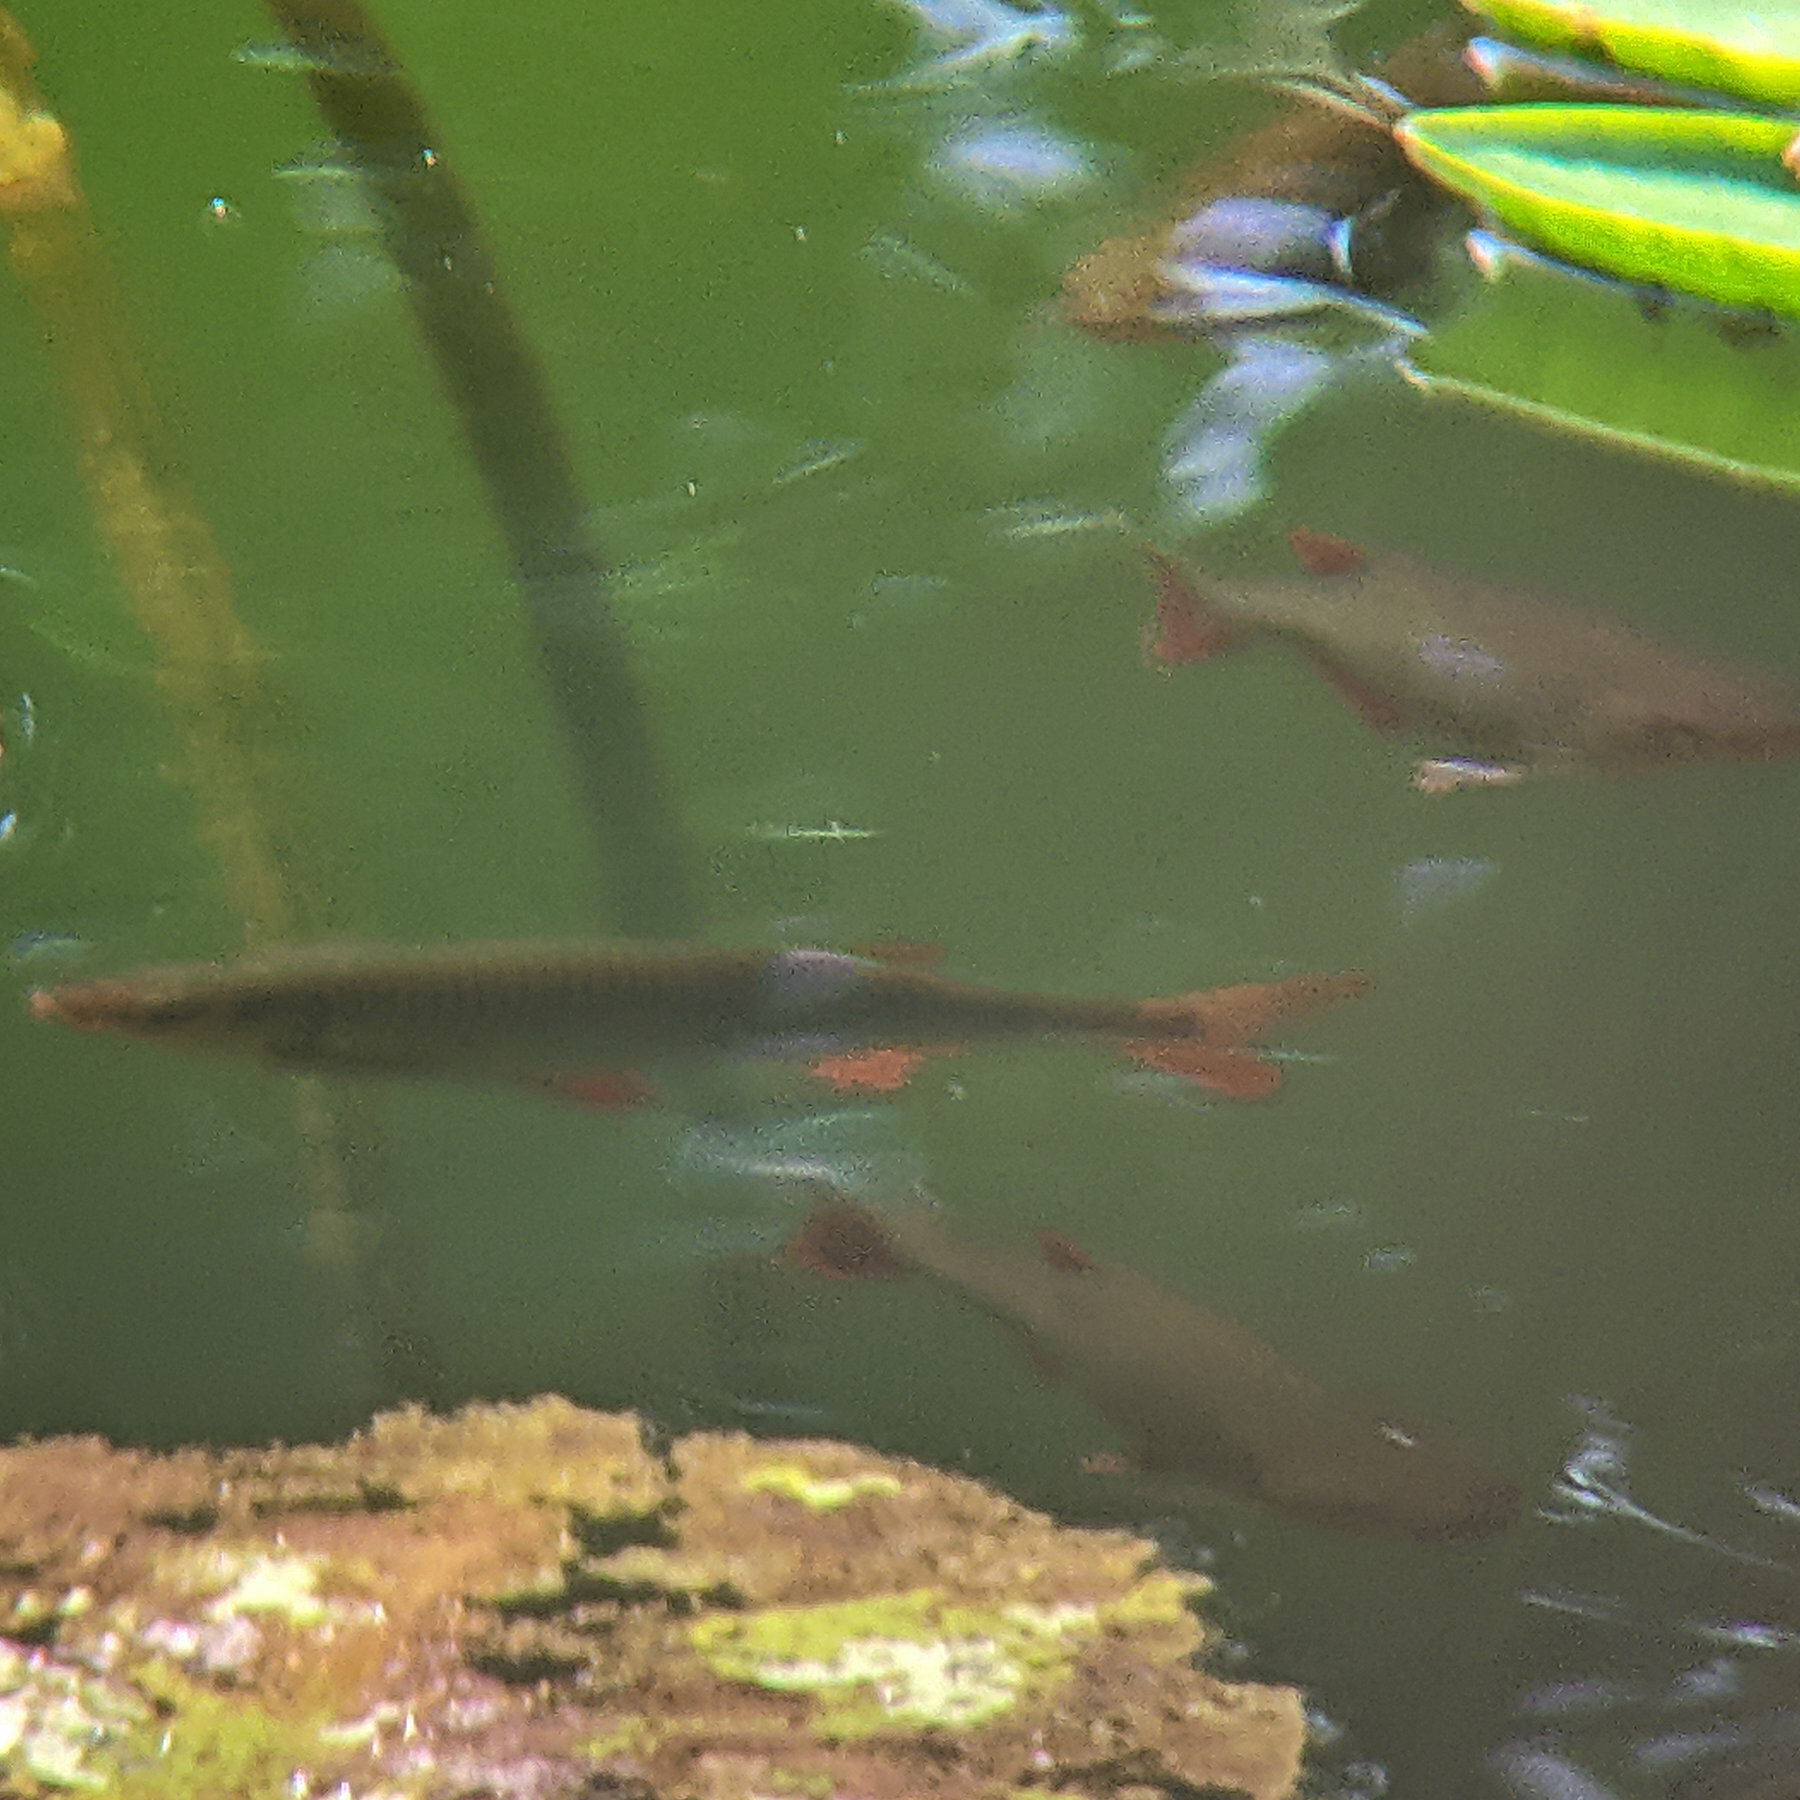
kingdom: Animalia
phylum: Chordata
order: Cypriniformes
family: Cyprinidae
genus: Scardinius
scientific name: Scardinius erythrophthalmus
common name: Rudd
